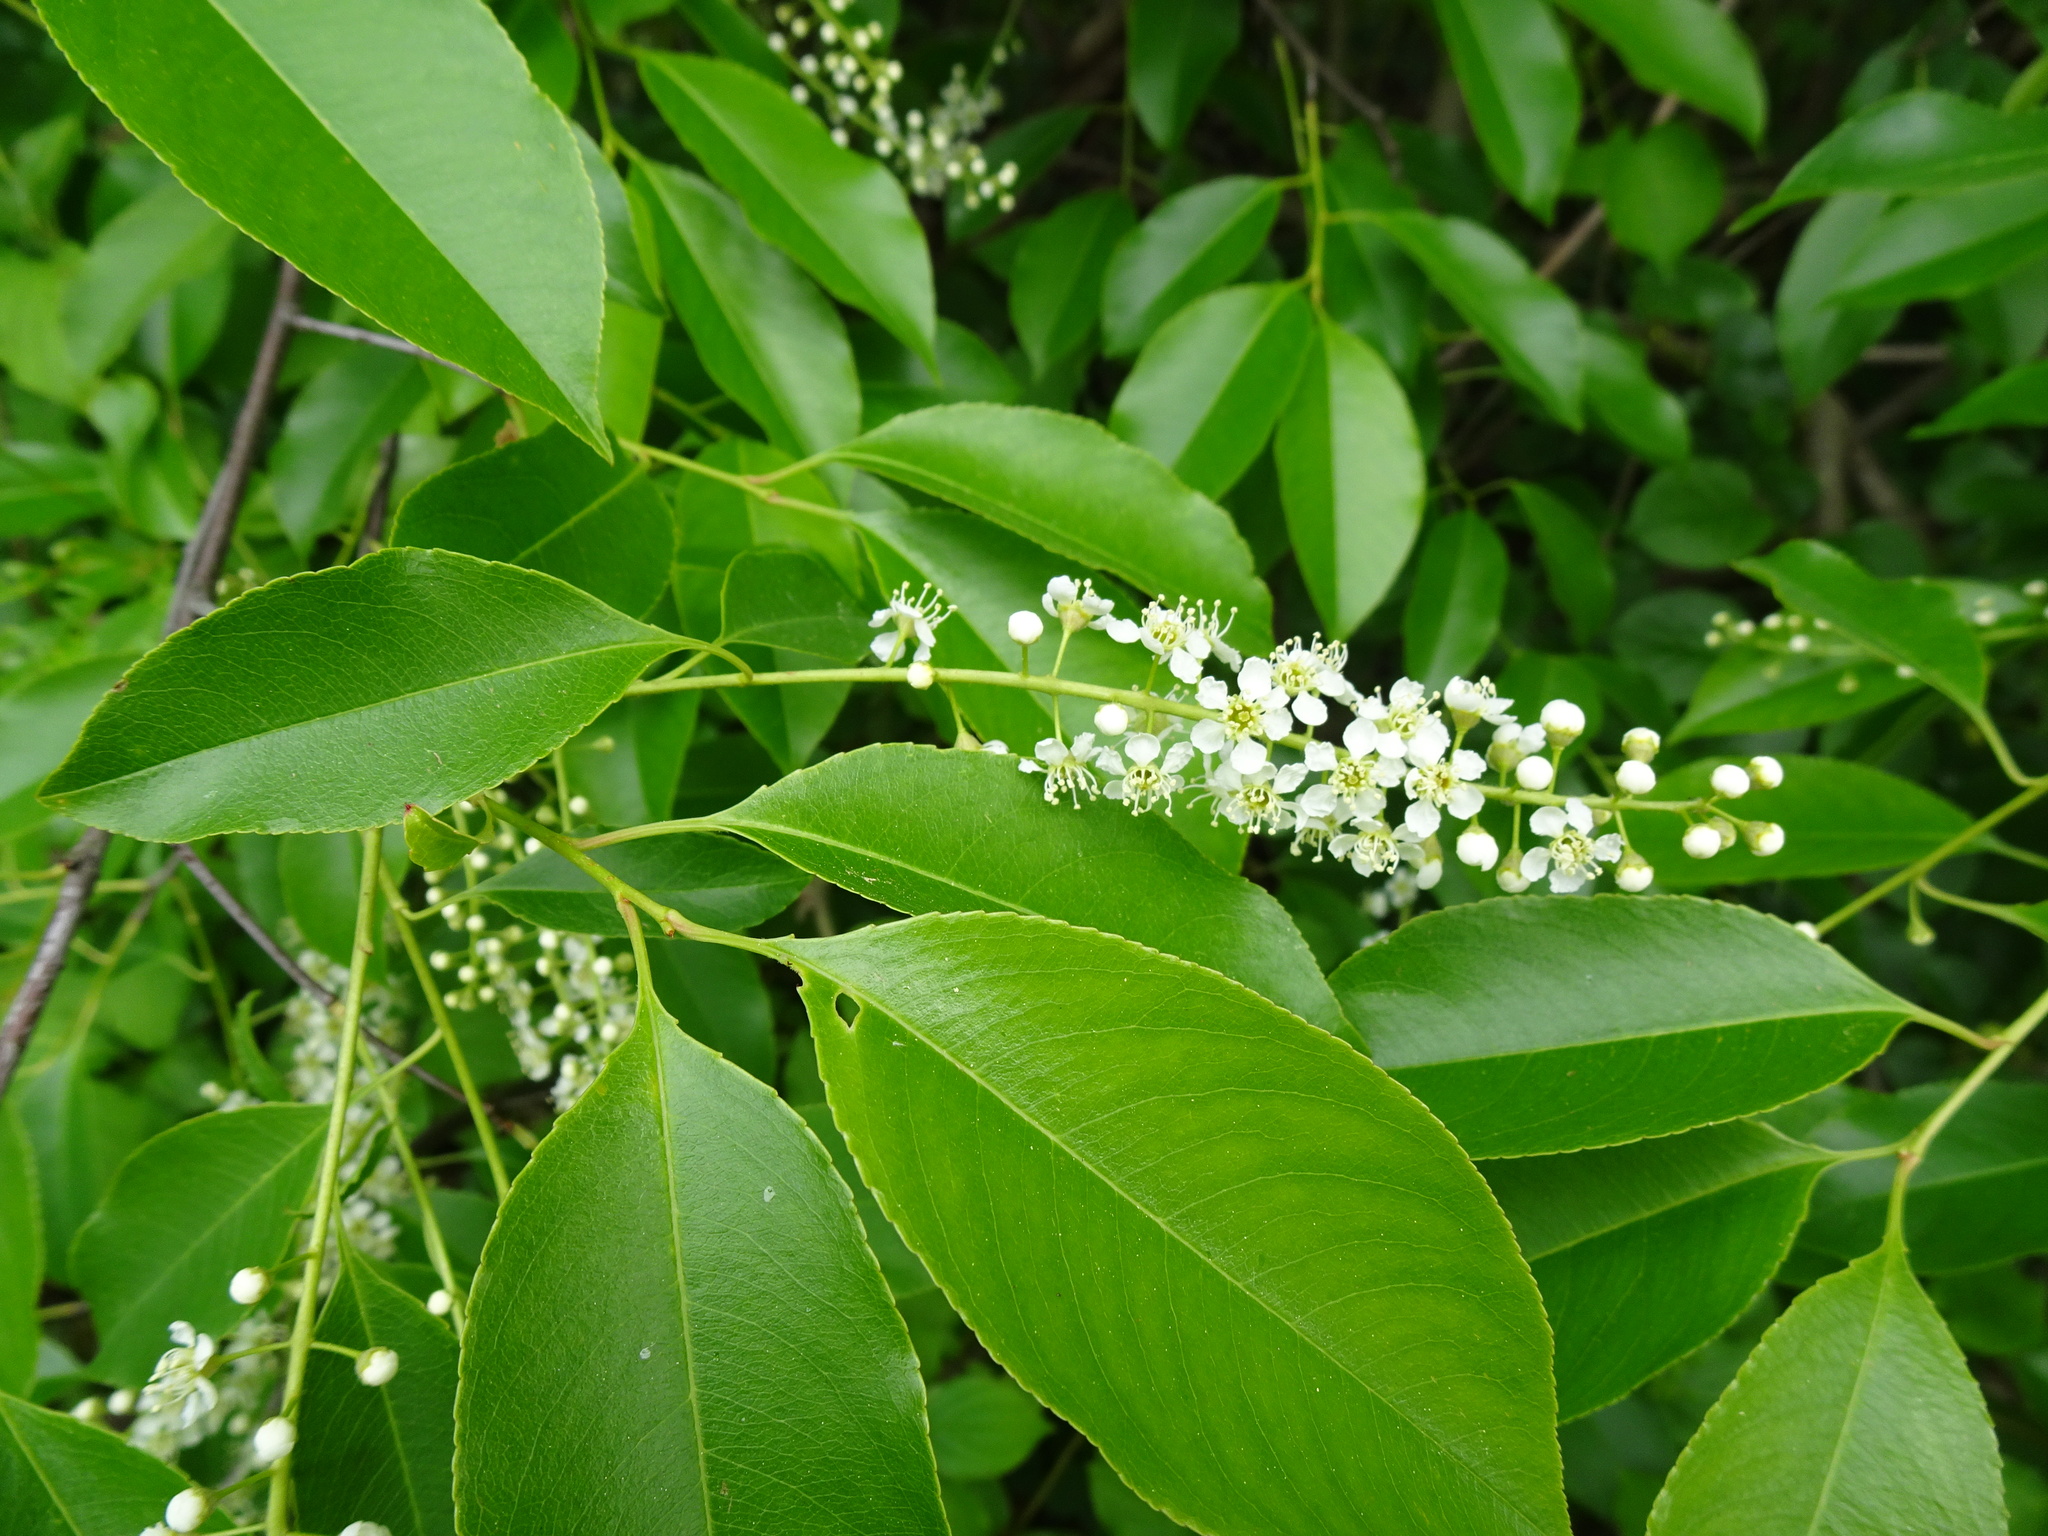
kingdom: Plantae
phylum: Tracheophyta
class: Magnoliopsida
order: Rosales
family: Rosaceae
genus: Prunus
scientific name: Prunus serotina
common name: Black cherry
